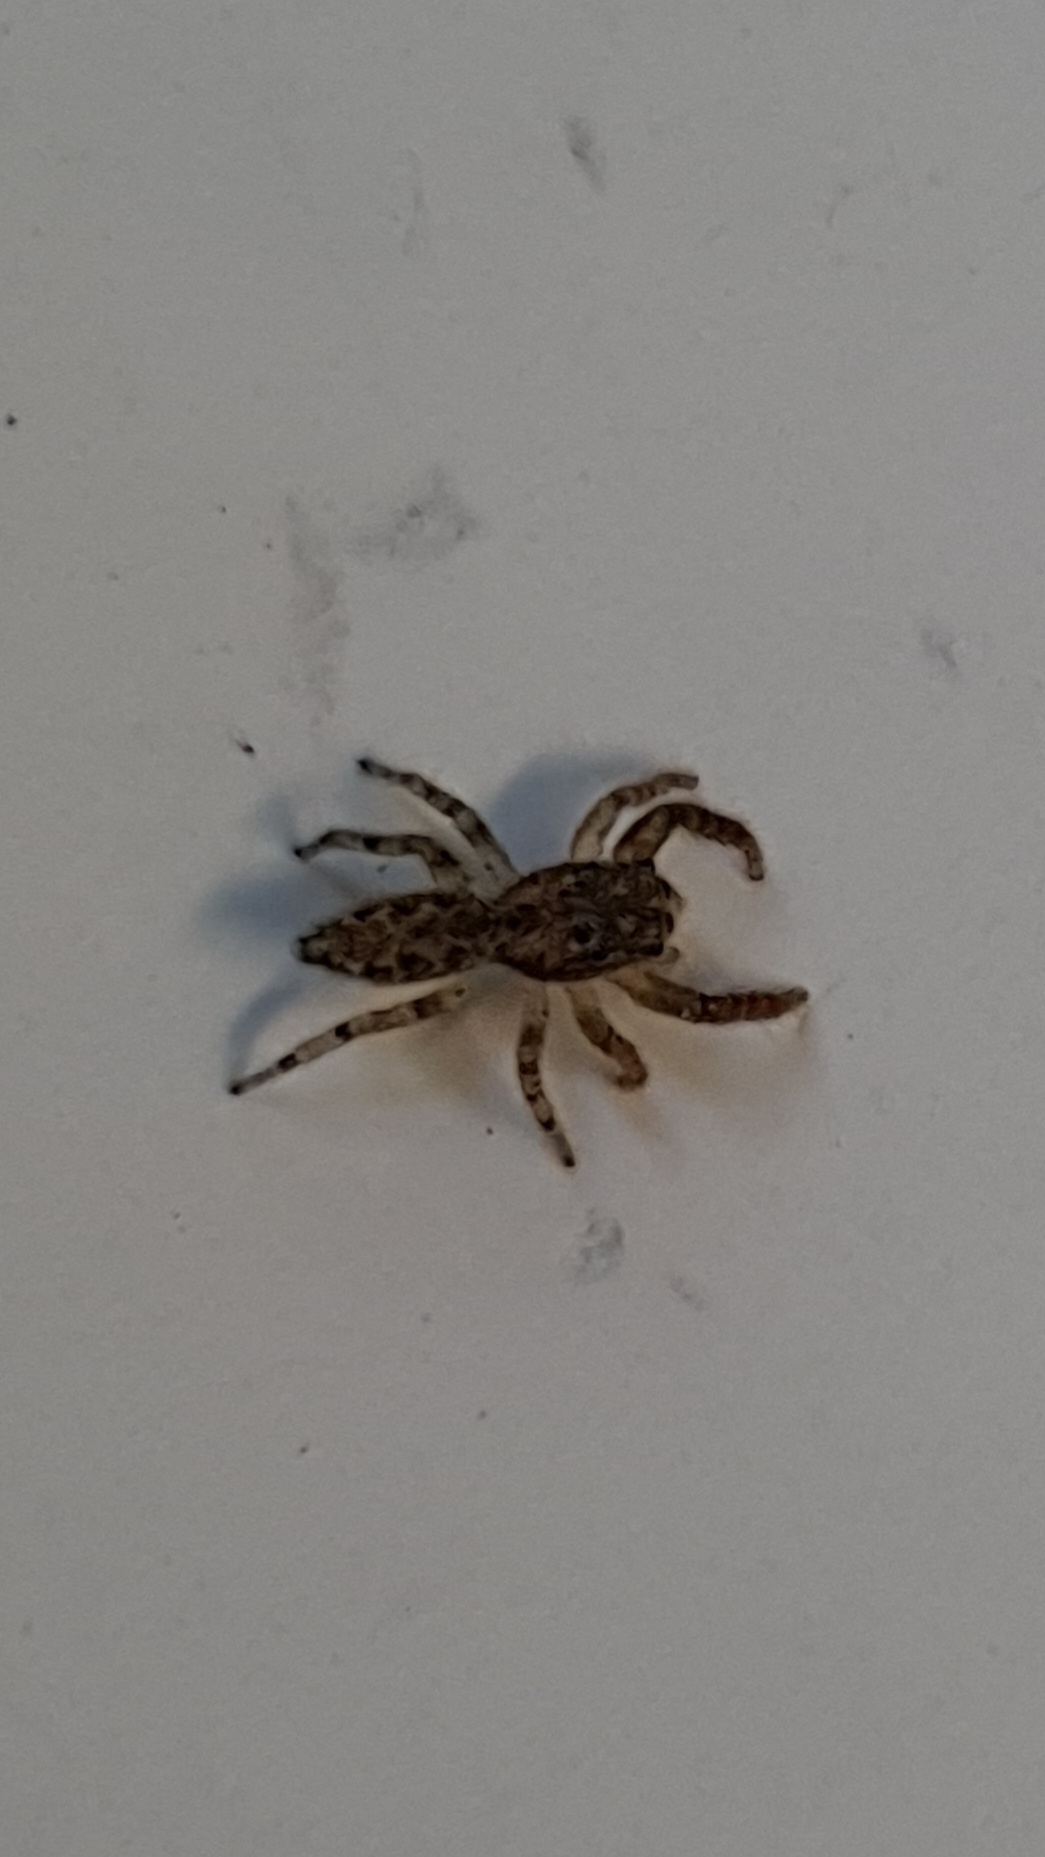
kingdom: Animalia
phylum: Arthropoda
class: Arachnida
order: Araneae
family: Salticidae
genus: Marpissa
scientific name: Marpissa muscosa
